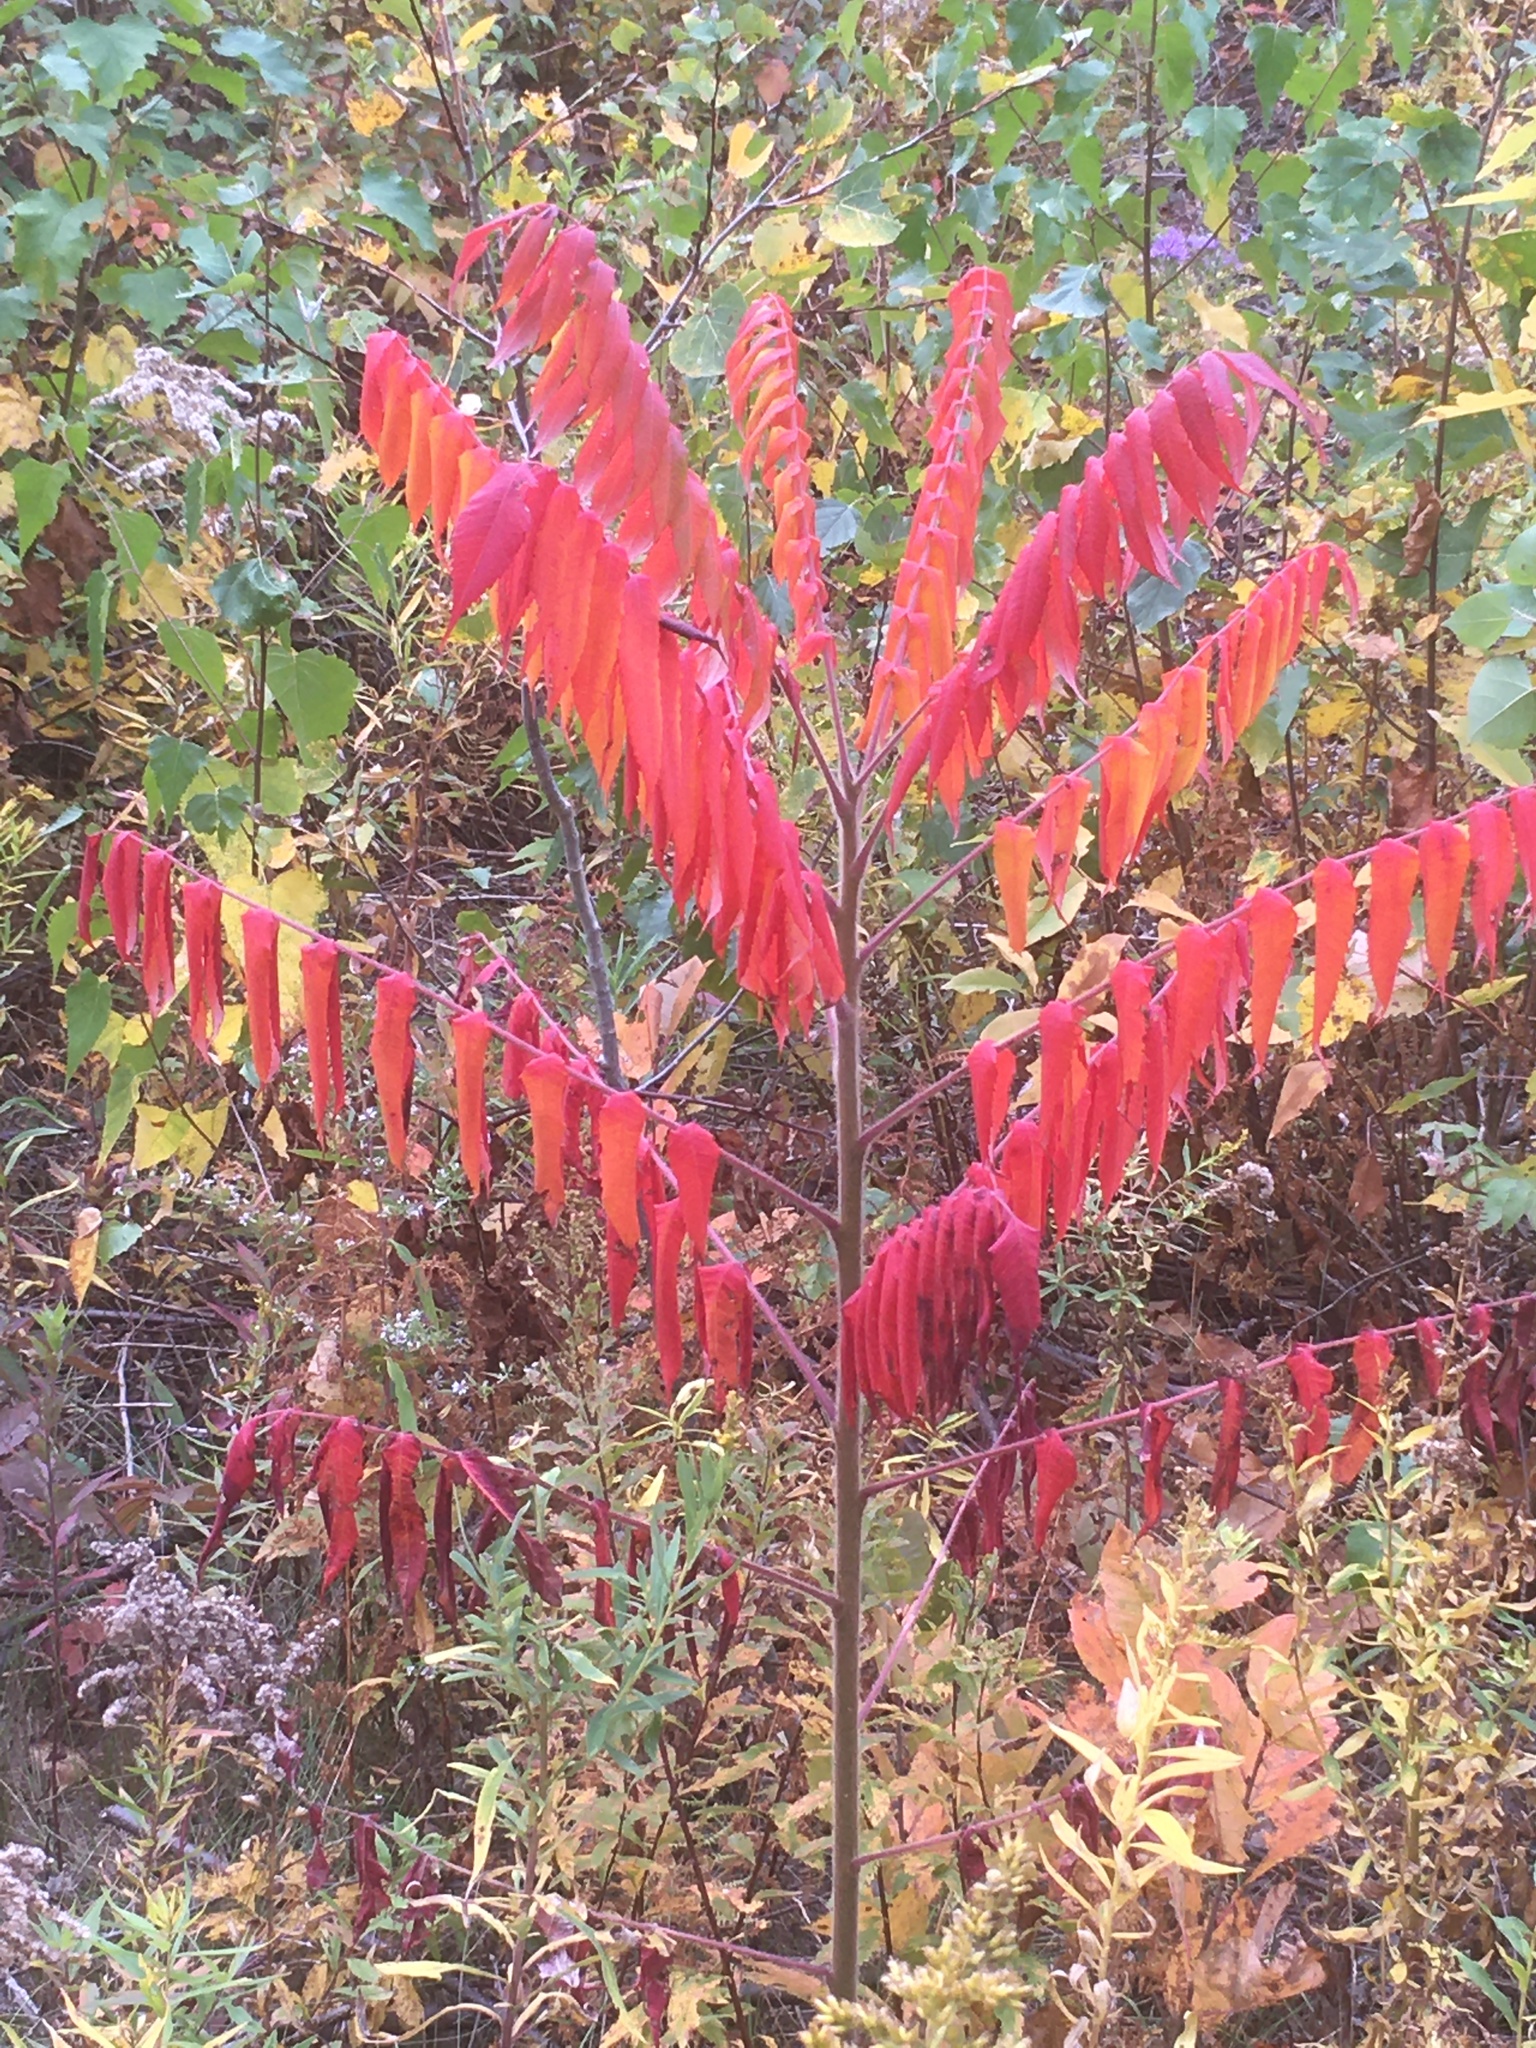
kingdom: Plantae
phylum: Tracheophyta
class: Magnoliopsida
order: Sapindales
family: Anacardiaceae
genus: Rhus
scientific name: Rhus typhina
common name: Staghorn sumac
